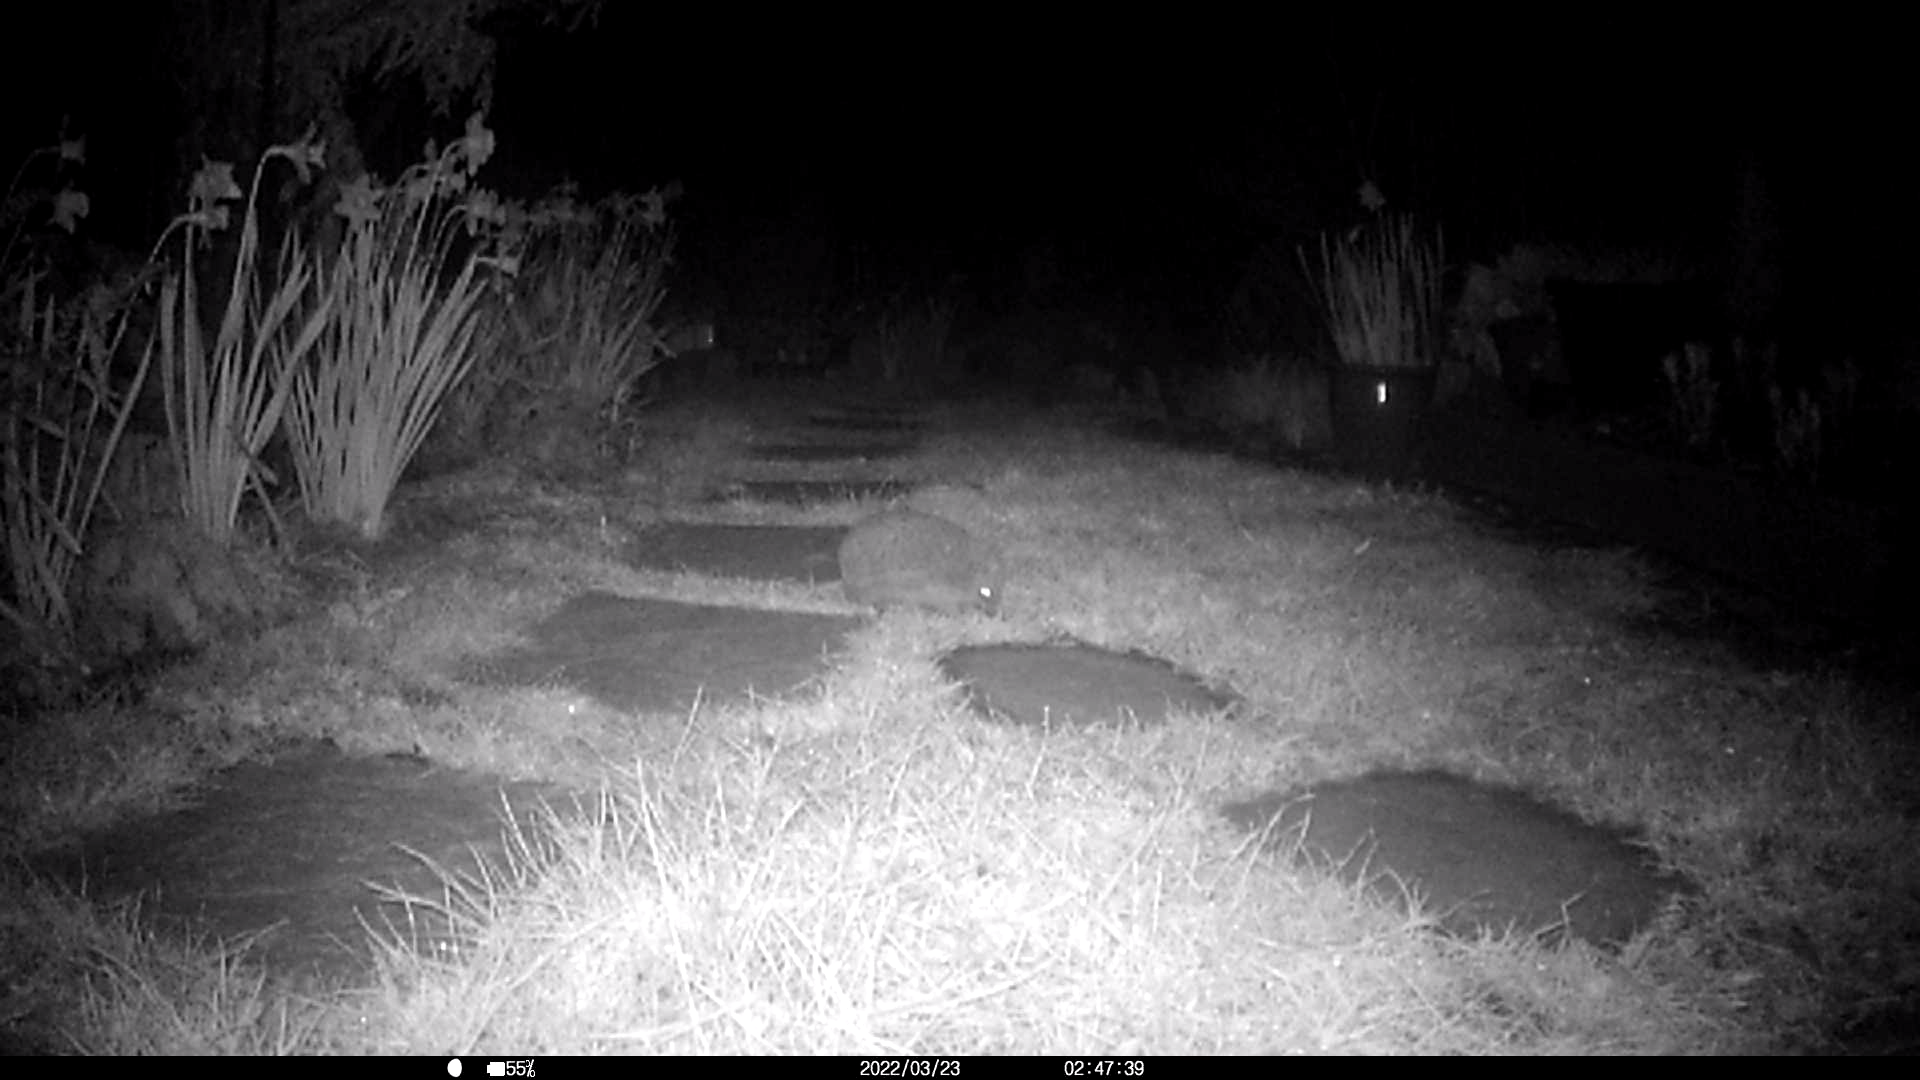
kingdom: Animalia
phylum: Chordata
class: Mammalia
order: Erinaceomorpha
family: Erinaceidae
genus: Erinaceus
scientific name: Erinaceus europaeus
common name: West european hedgehog
